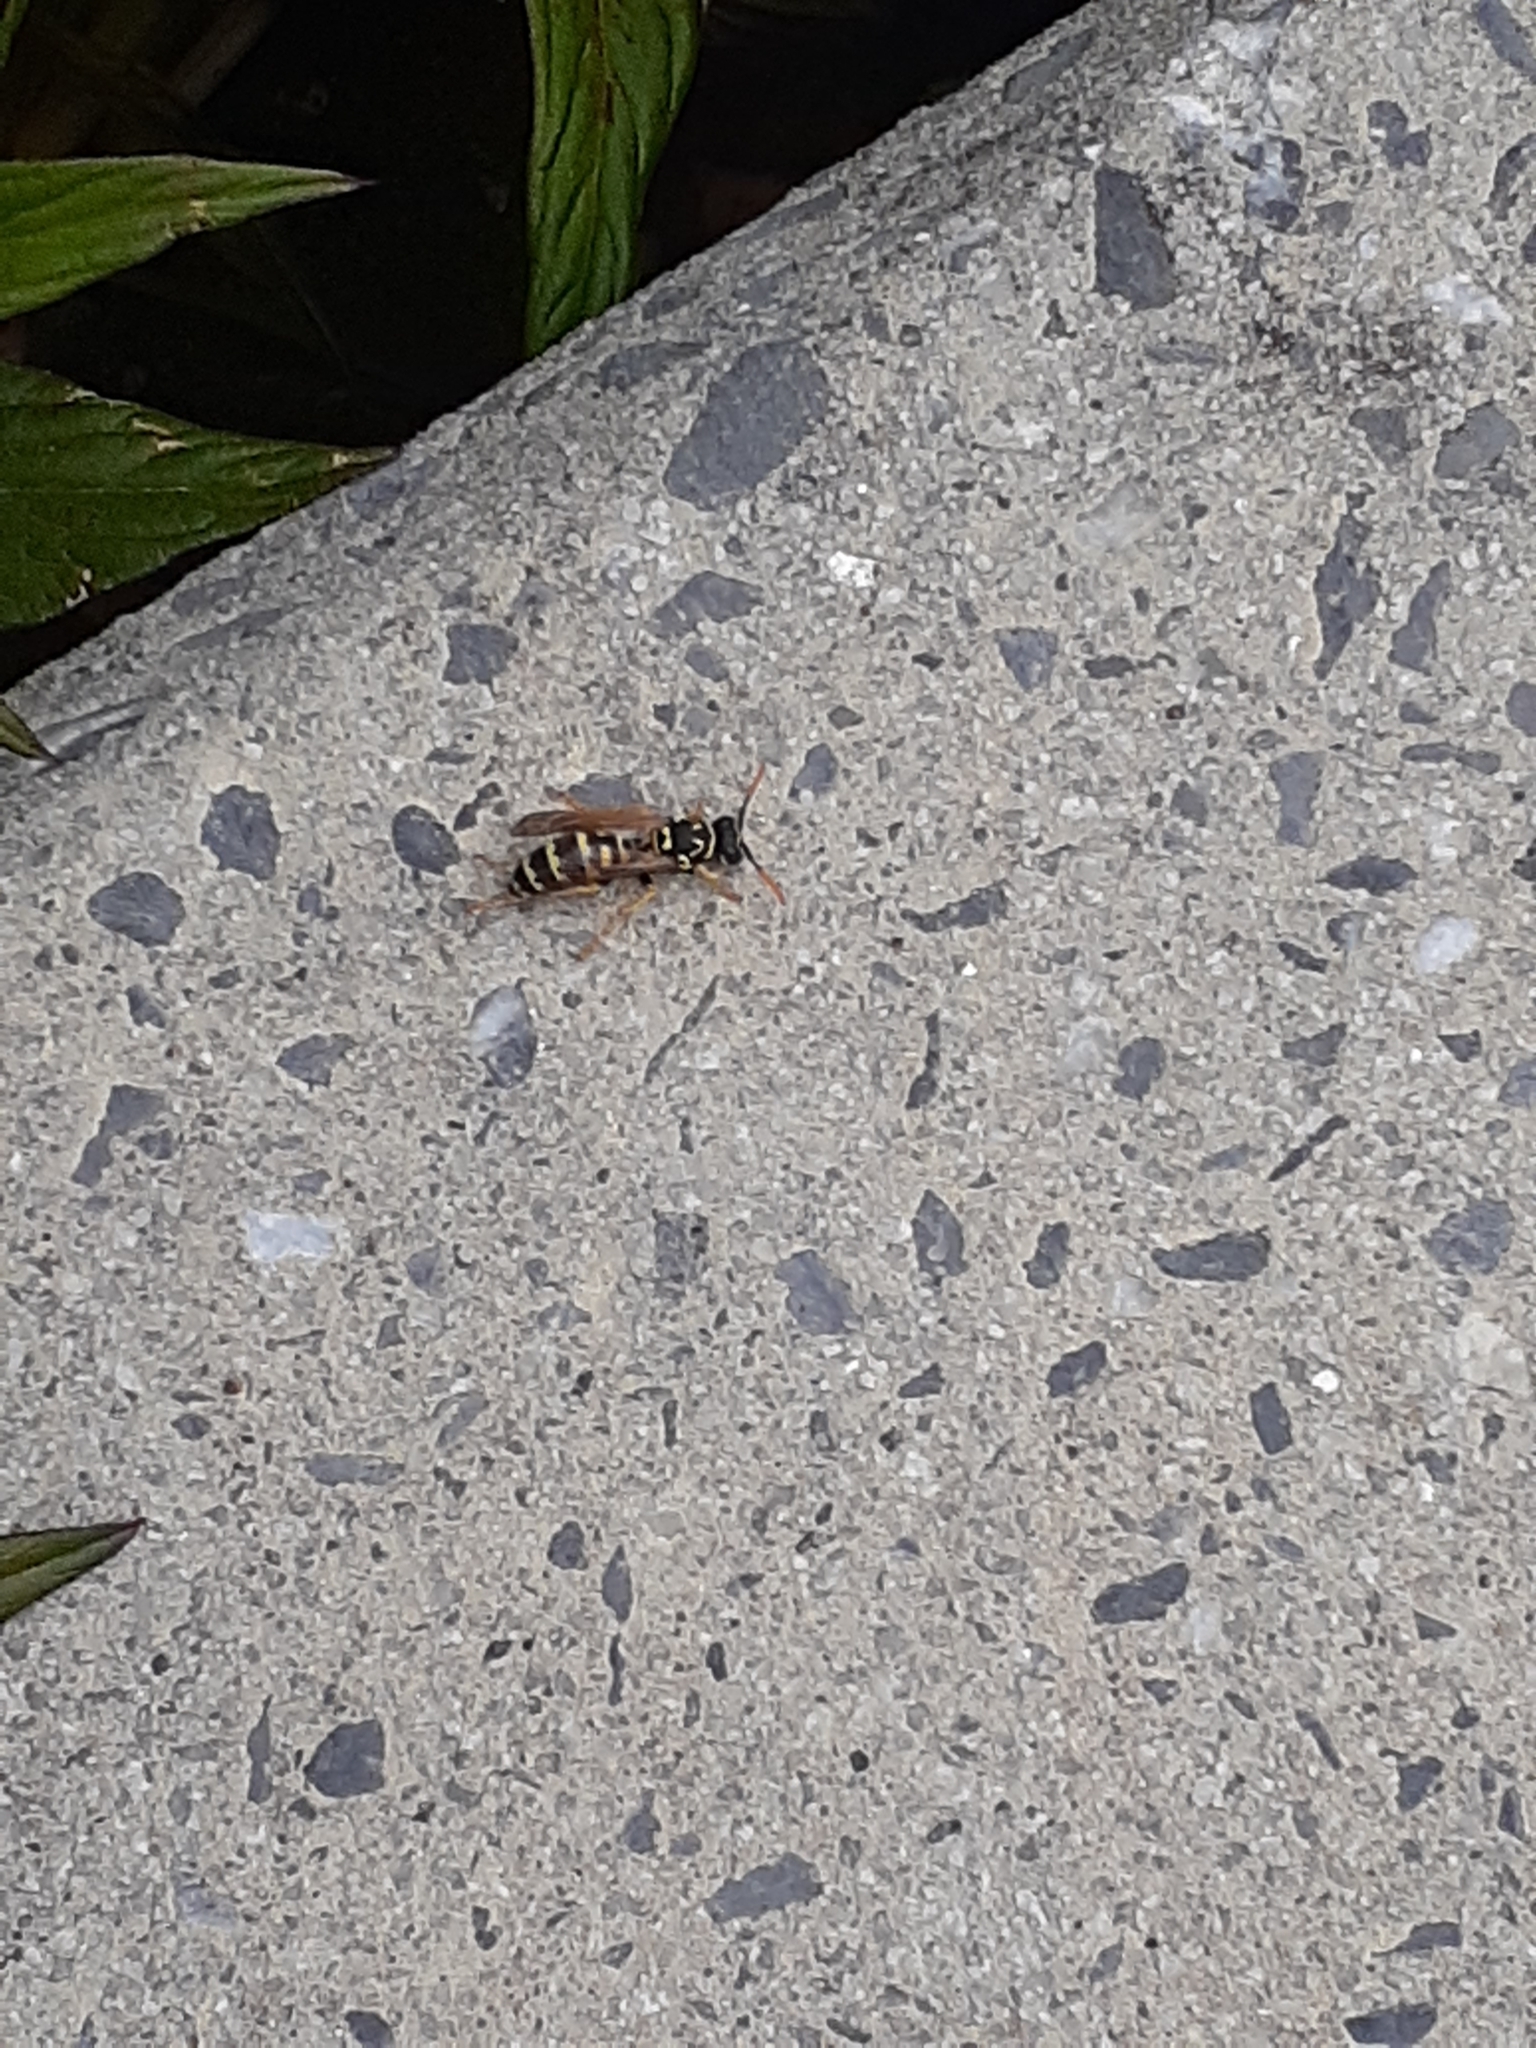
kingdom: Animalia
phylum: Arthropoda
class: Insecta
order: Hymenoptera
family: Eumenidae
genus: Polistes
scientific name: Polistes dominula
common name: Paper wasp
